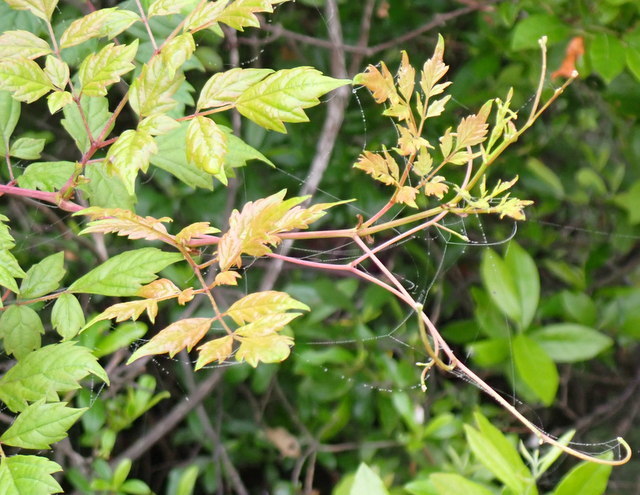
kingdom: Plantae
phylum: Tracheophyta
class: Magnoliopsida
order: Vitales
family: Vitaceae
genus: Nekemias
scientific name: Nekemias arborea
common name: Peppervine
